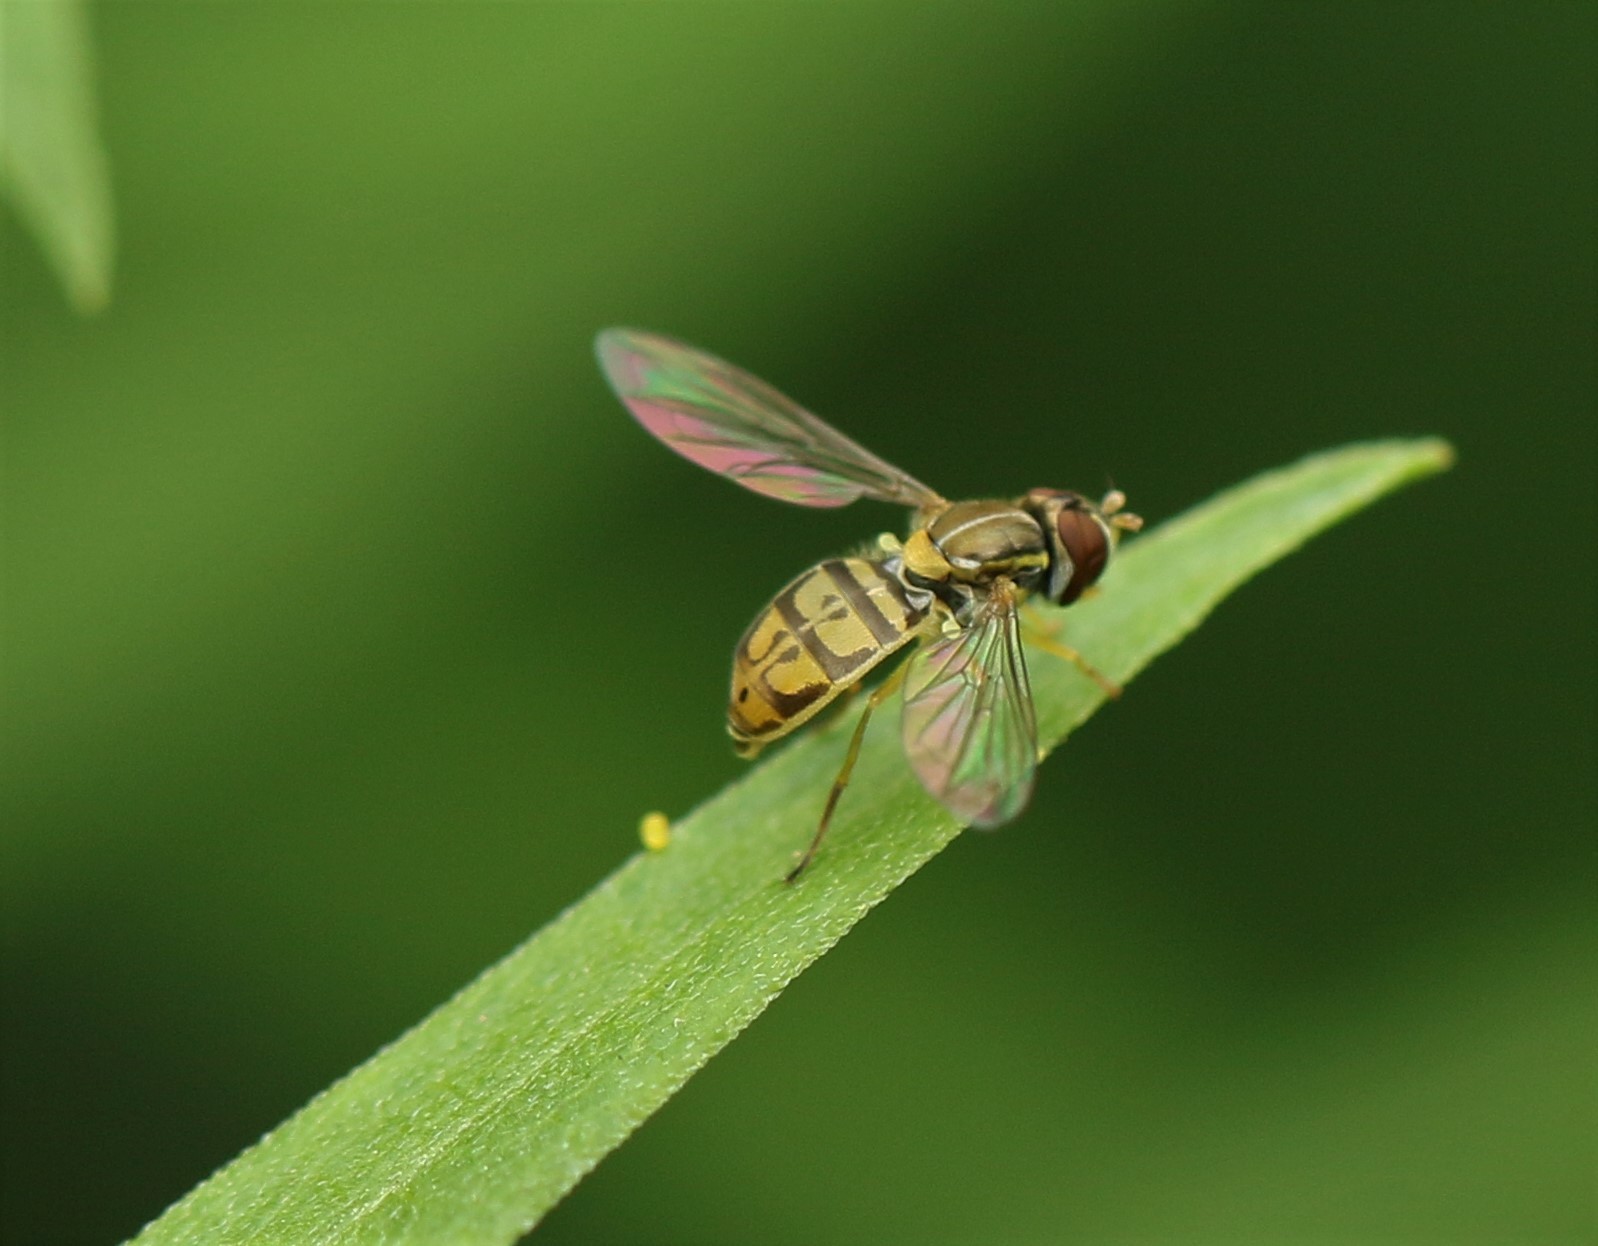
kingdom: Animalia
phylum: Arthropoda
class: Insecta
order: Diptera
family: Syrphidae
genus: Toxomerus
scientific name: Toxomerus marginatus
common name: Syrphid fly
